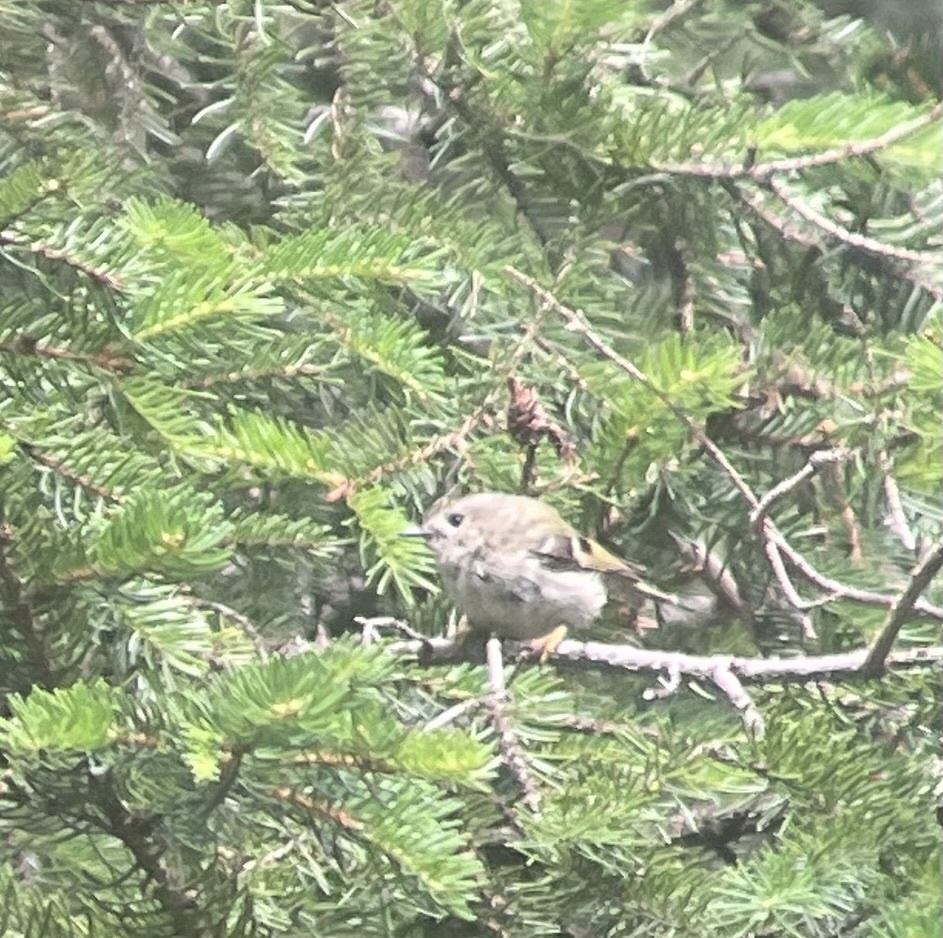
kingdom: Animalia
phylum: Chordata
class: Aves
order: Passeriformes
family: Regulidae
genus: Regulus
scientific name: Regulus regulus
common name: Goldcrest
